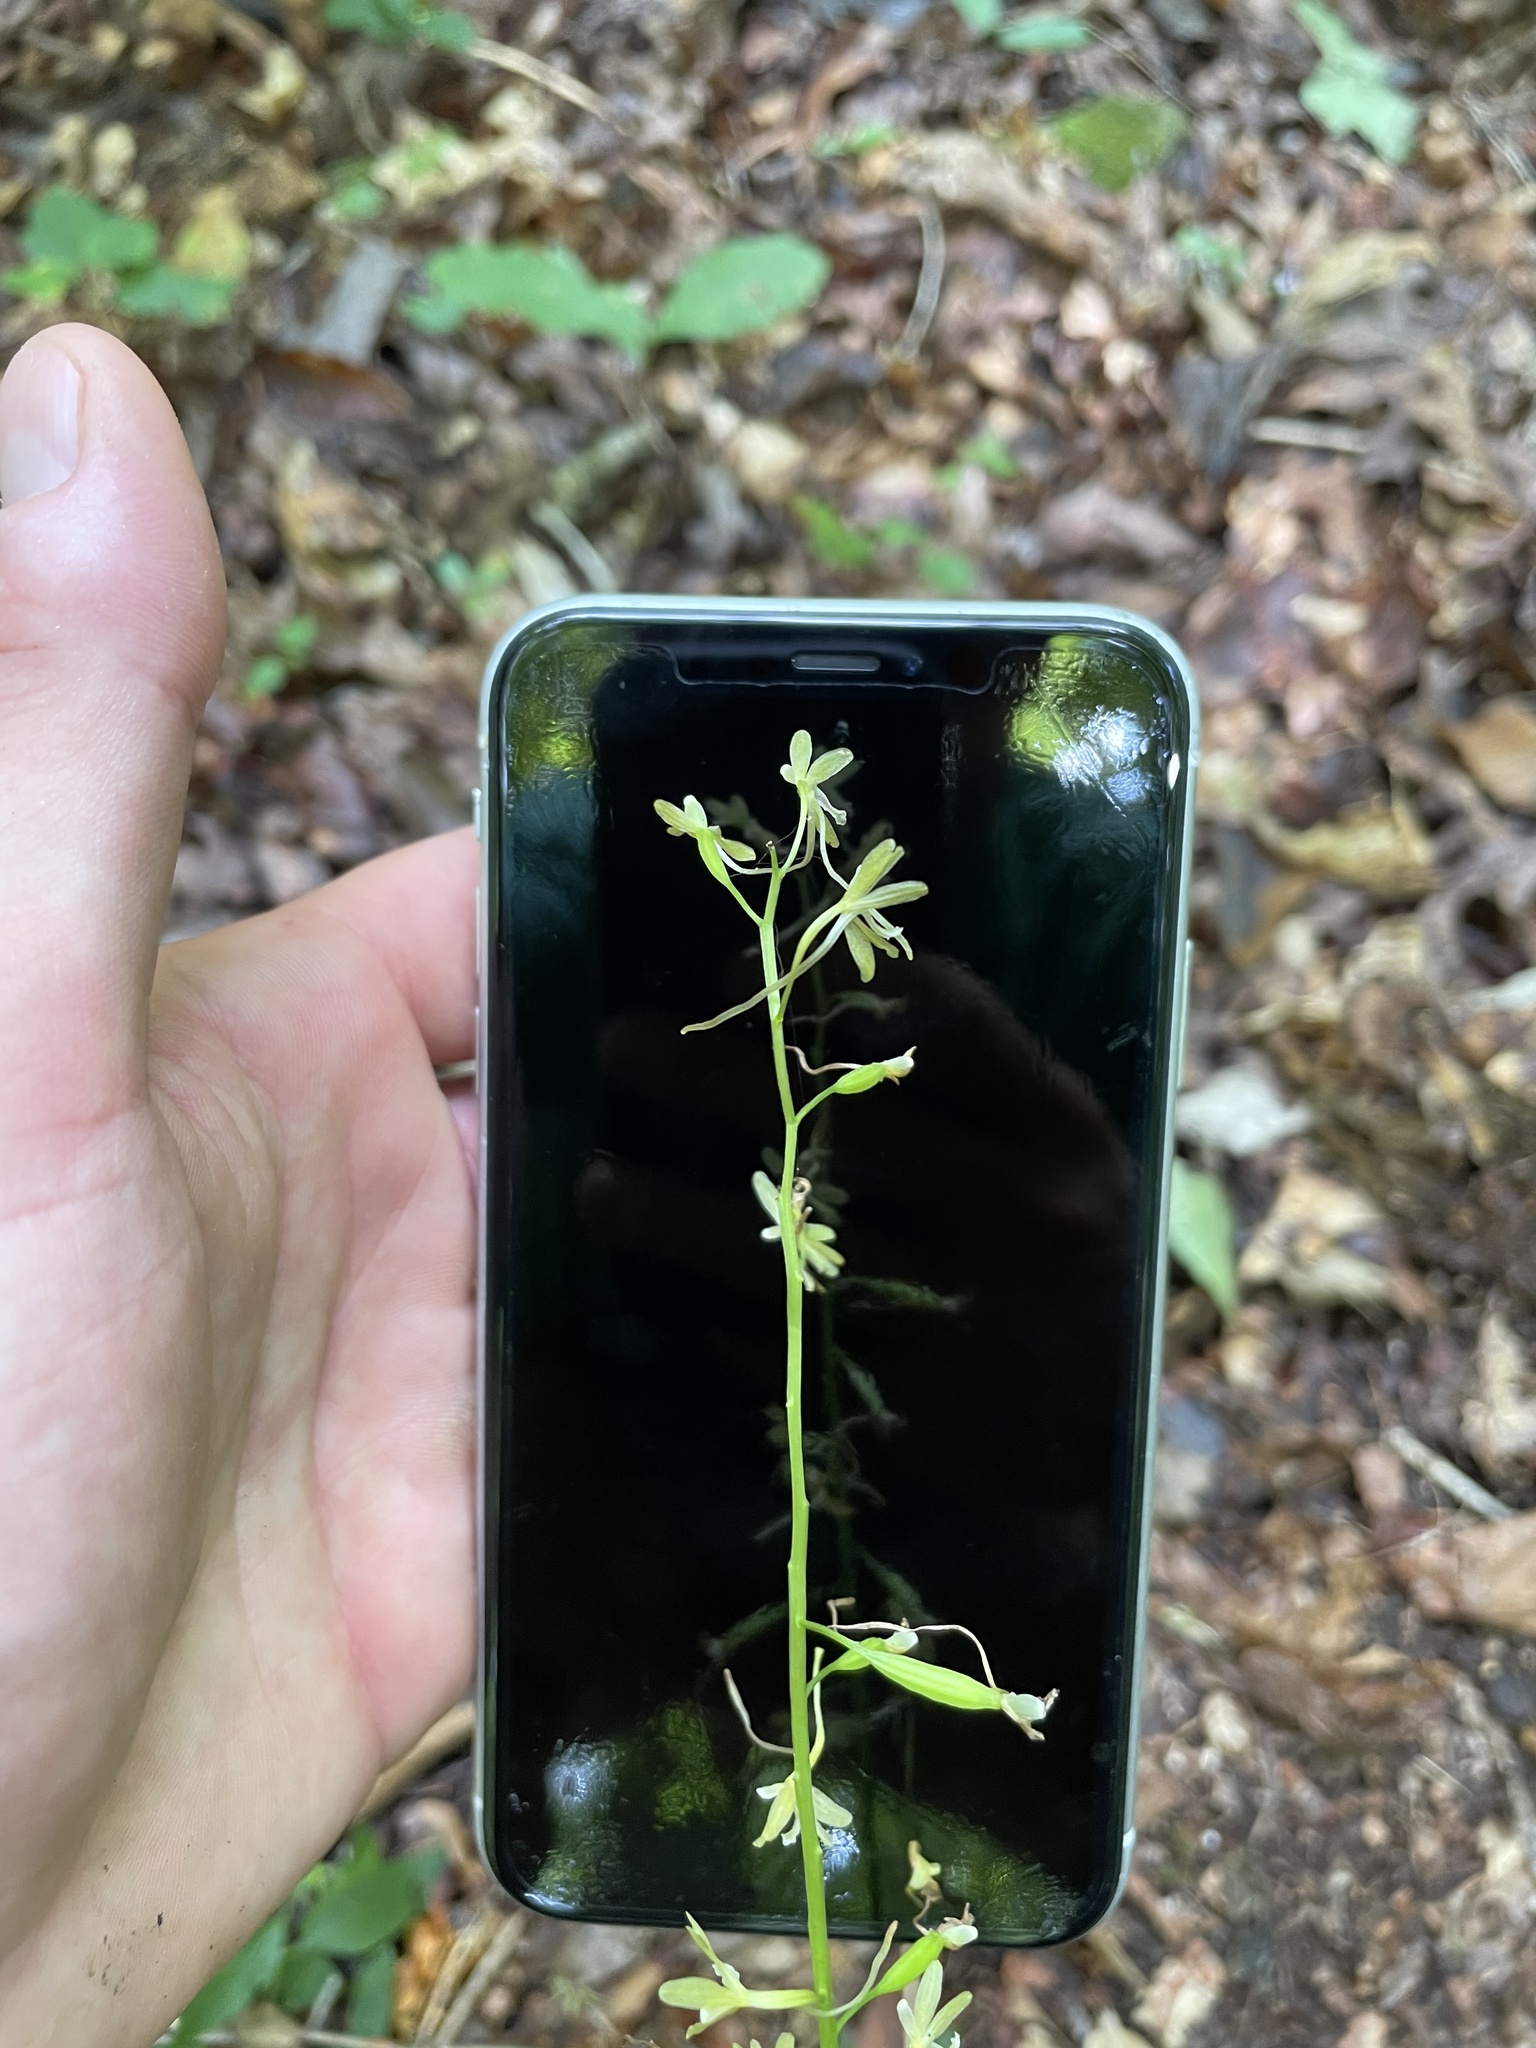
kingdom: Plantae
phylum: Tracheophyta
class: Liliopsida
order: Asparagales
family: Orchidaceae
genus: Tipularia
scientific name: Tipularia discolor
